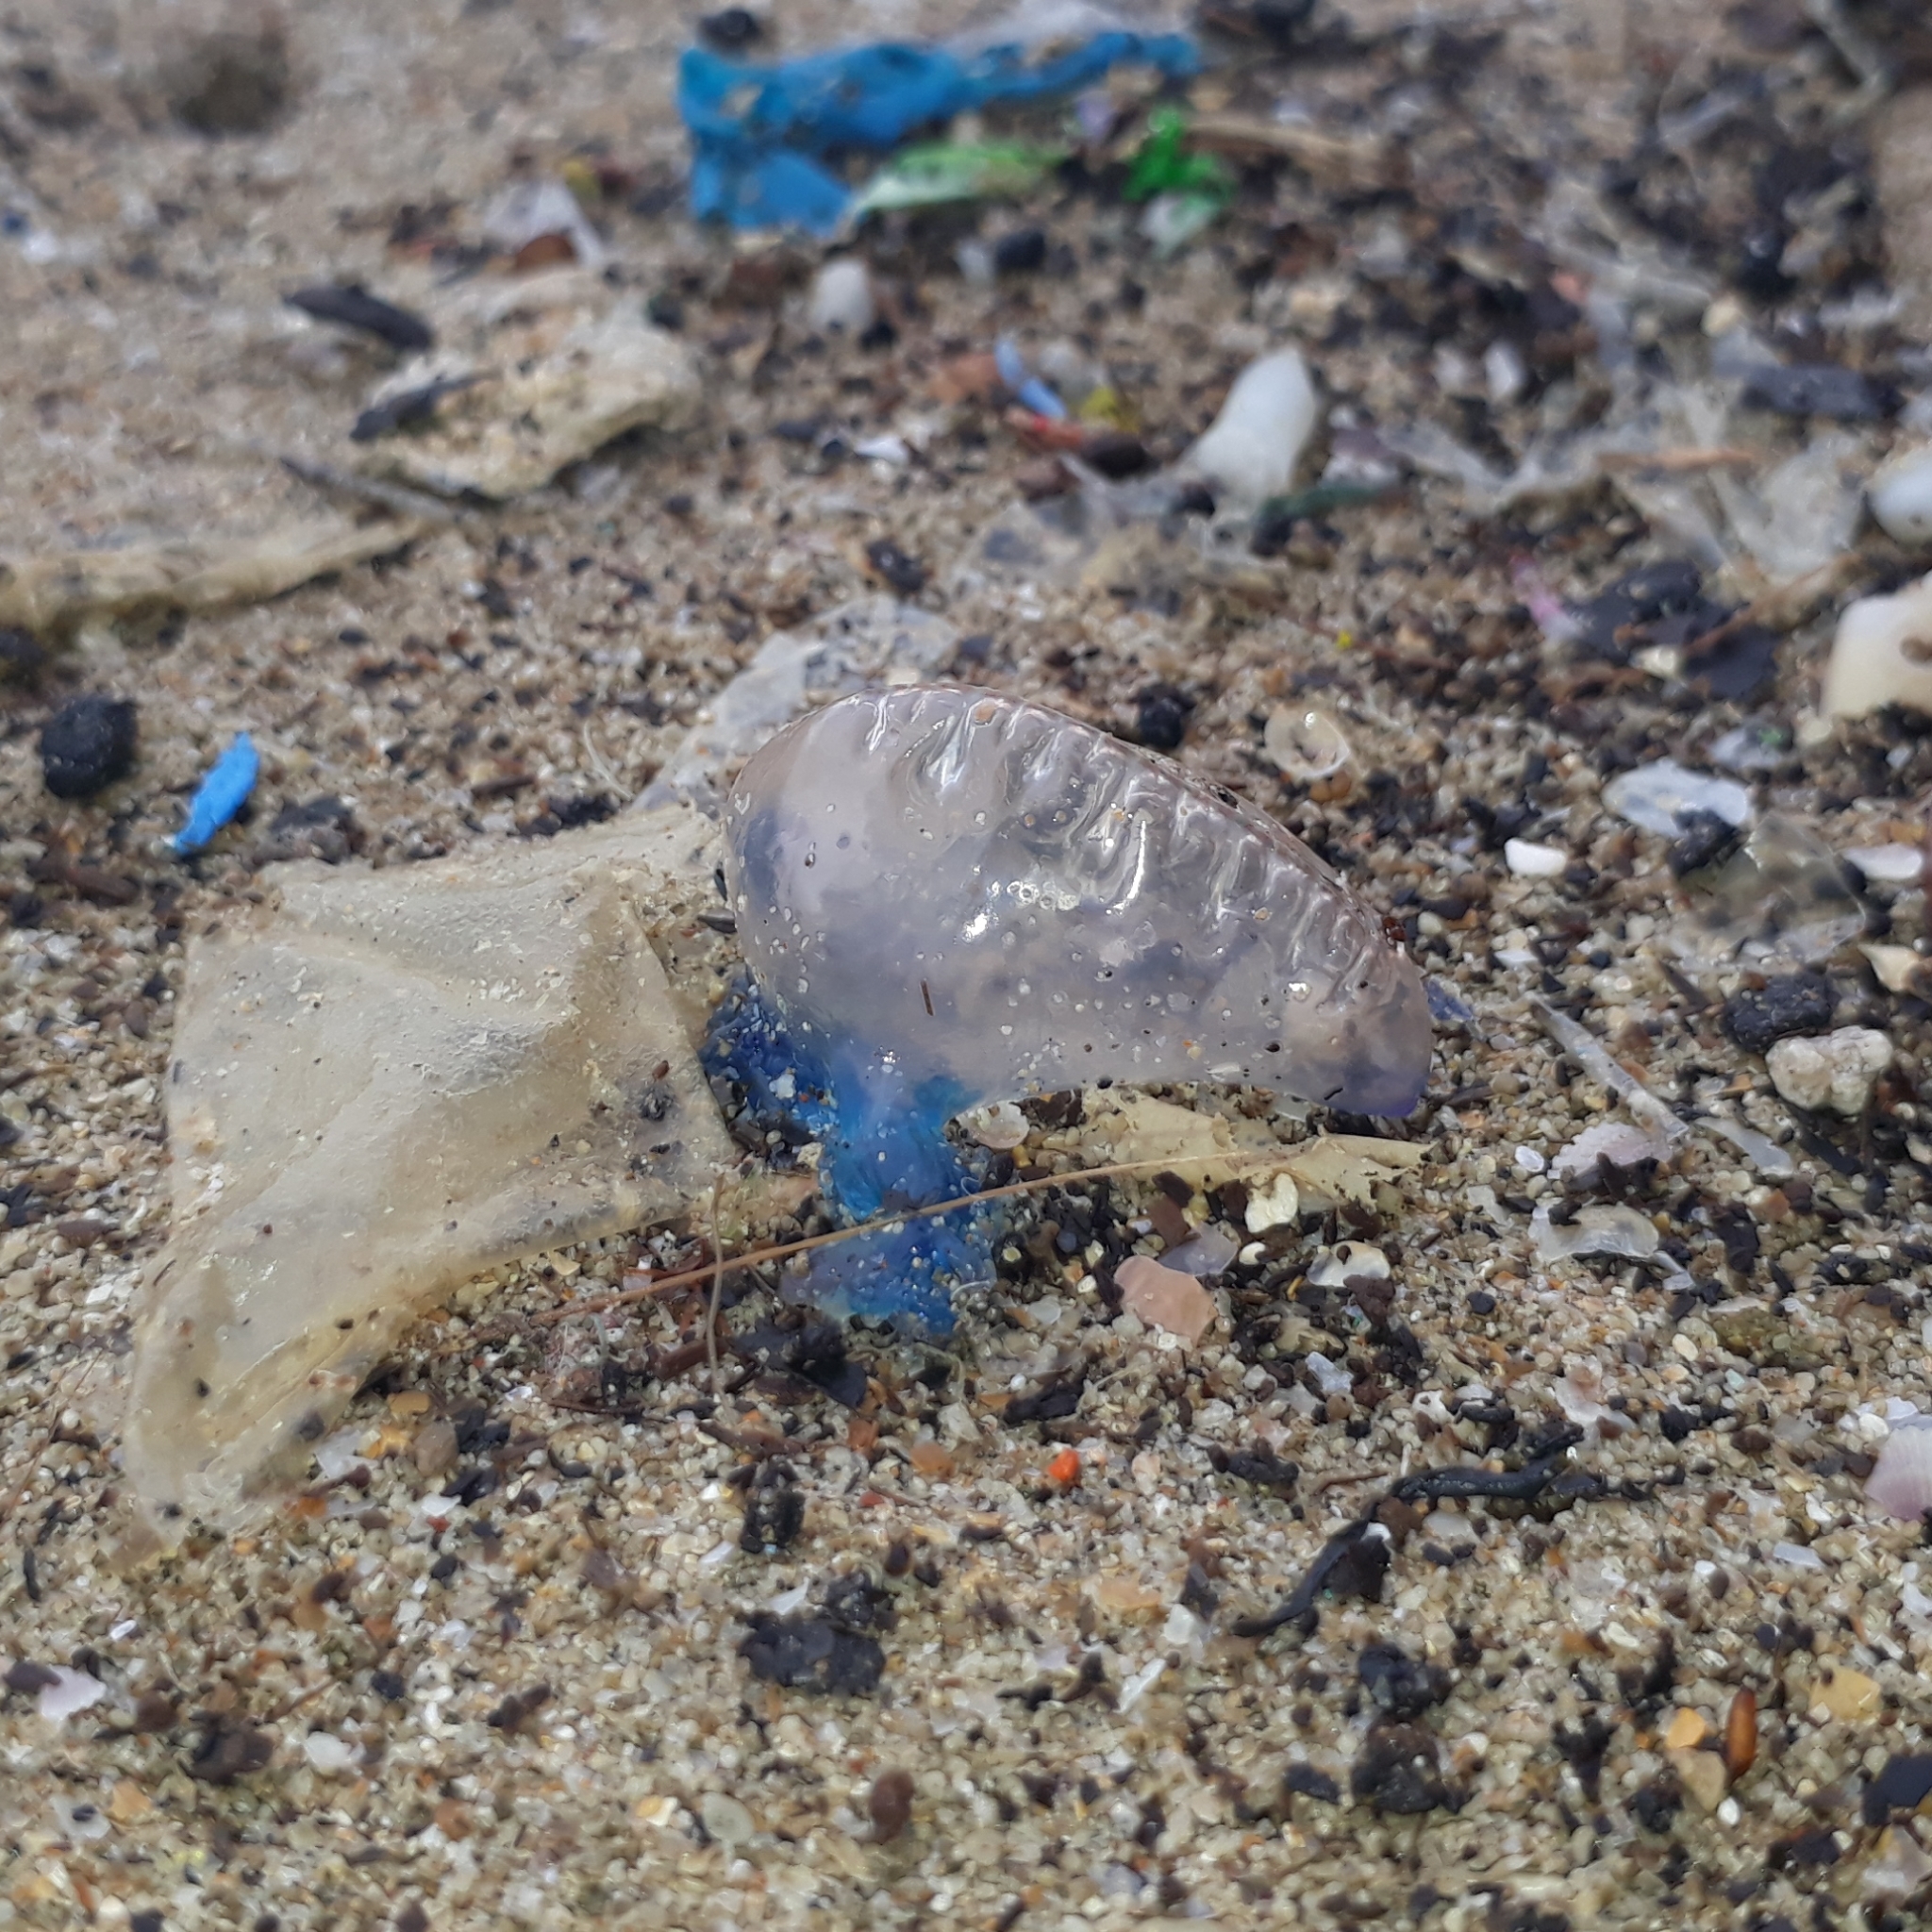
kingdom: Animalia
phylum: Cnidaria
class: Hydrozoa
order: Siphonophorae
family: Physaliidae
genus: Physalia
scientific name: Physalia physalis
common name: Portuguese man-of-war
